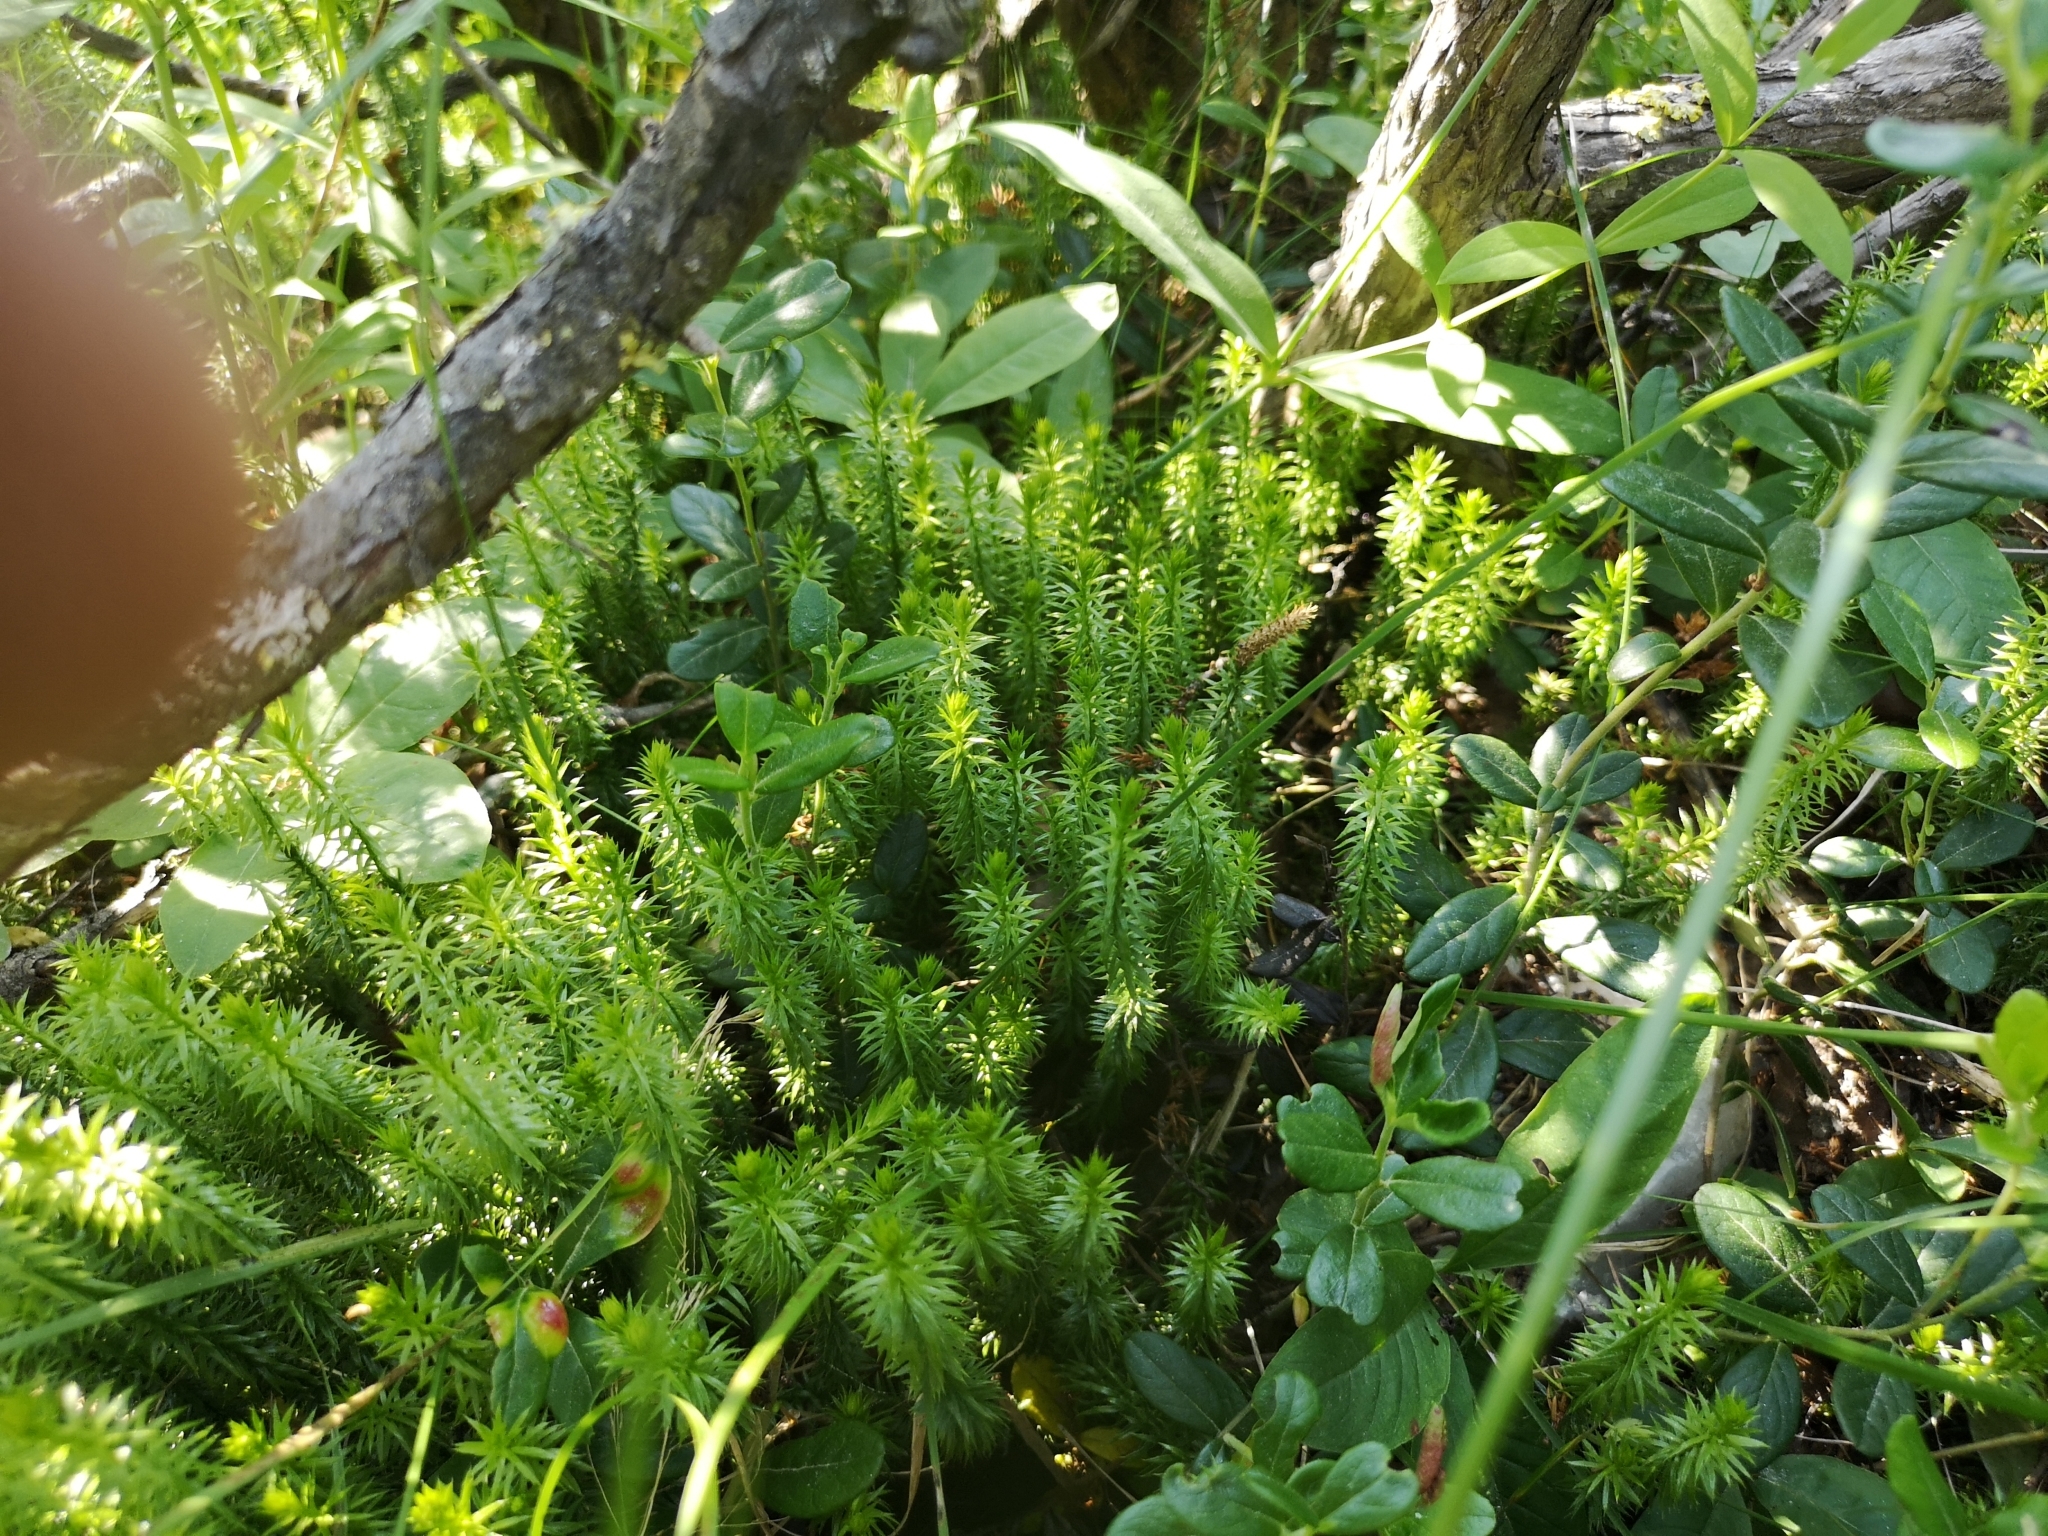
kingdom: Plantae
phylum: Tracheophyta
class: Lycopodiopsida
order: Lycopodiales
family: Lycopodiaceae
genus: Spinulum
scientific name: Spinulum annotinum
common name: Interrupted club-moss
